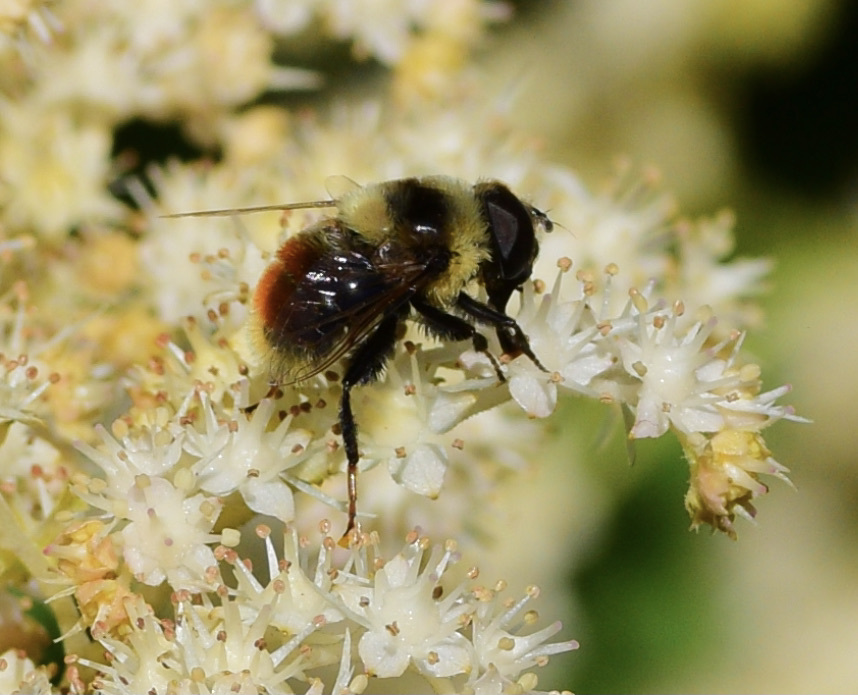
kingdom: Animalia
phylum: Arthropoda
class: Insecta
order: Diptera
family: Syrphidae
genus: Eristalis
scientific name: Eristalis flavipes
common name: Orange-legged drone fly
